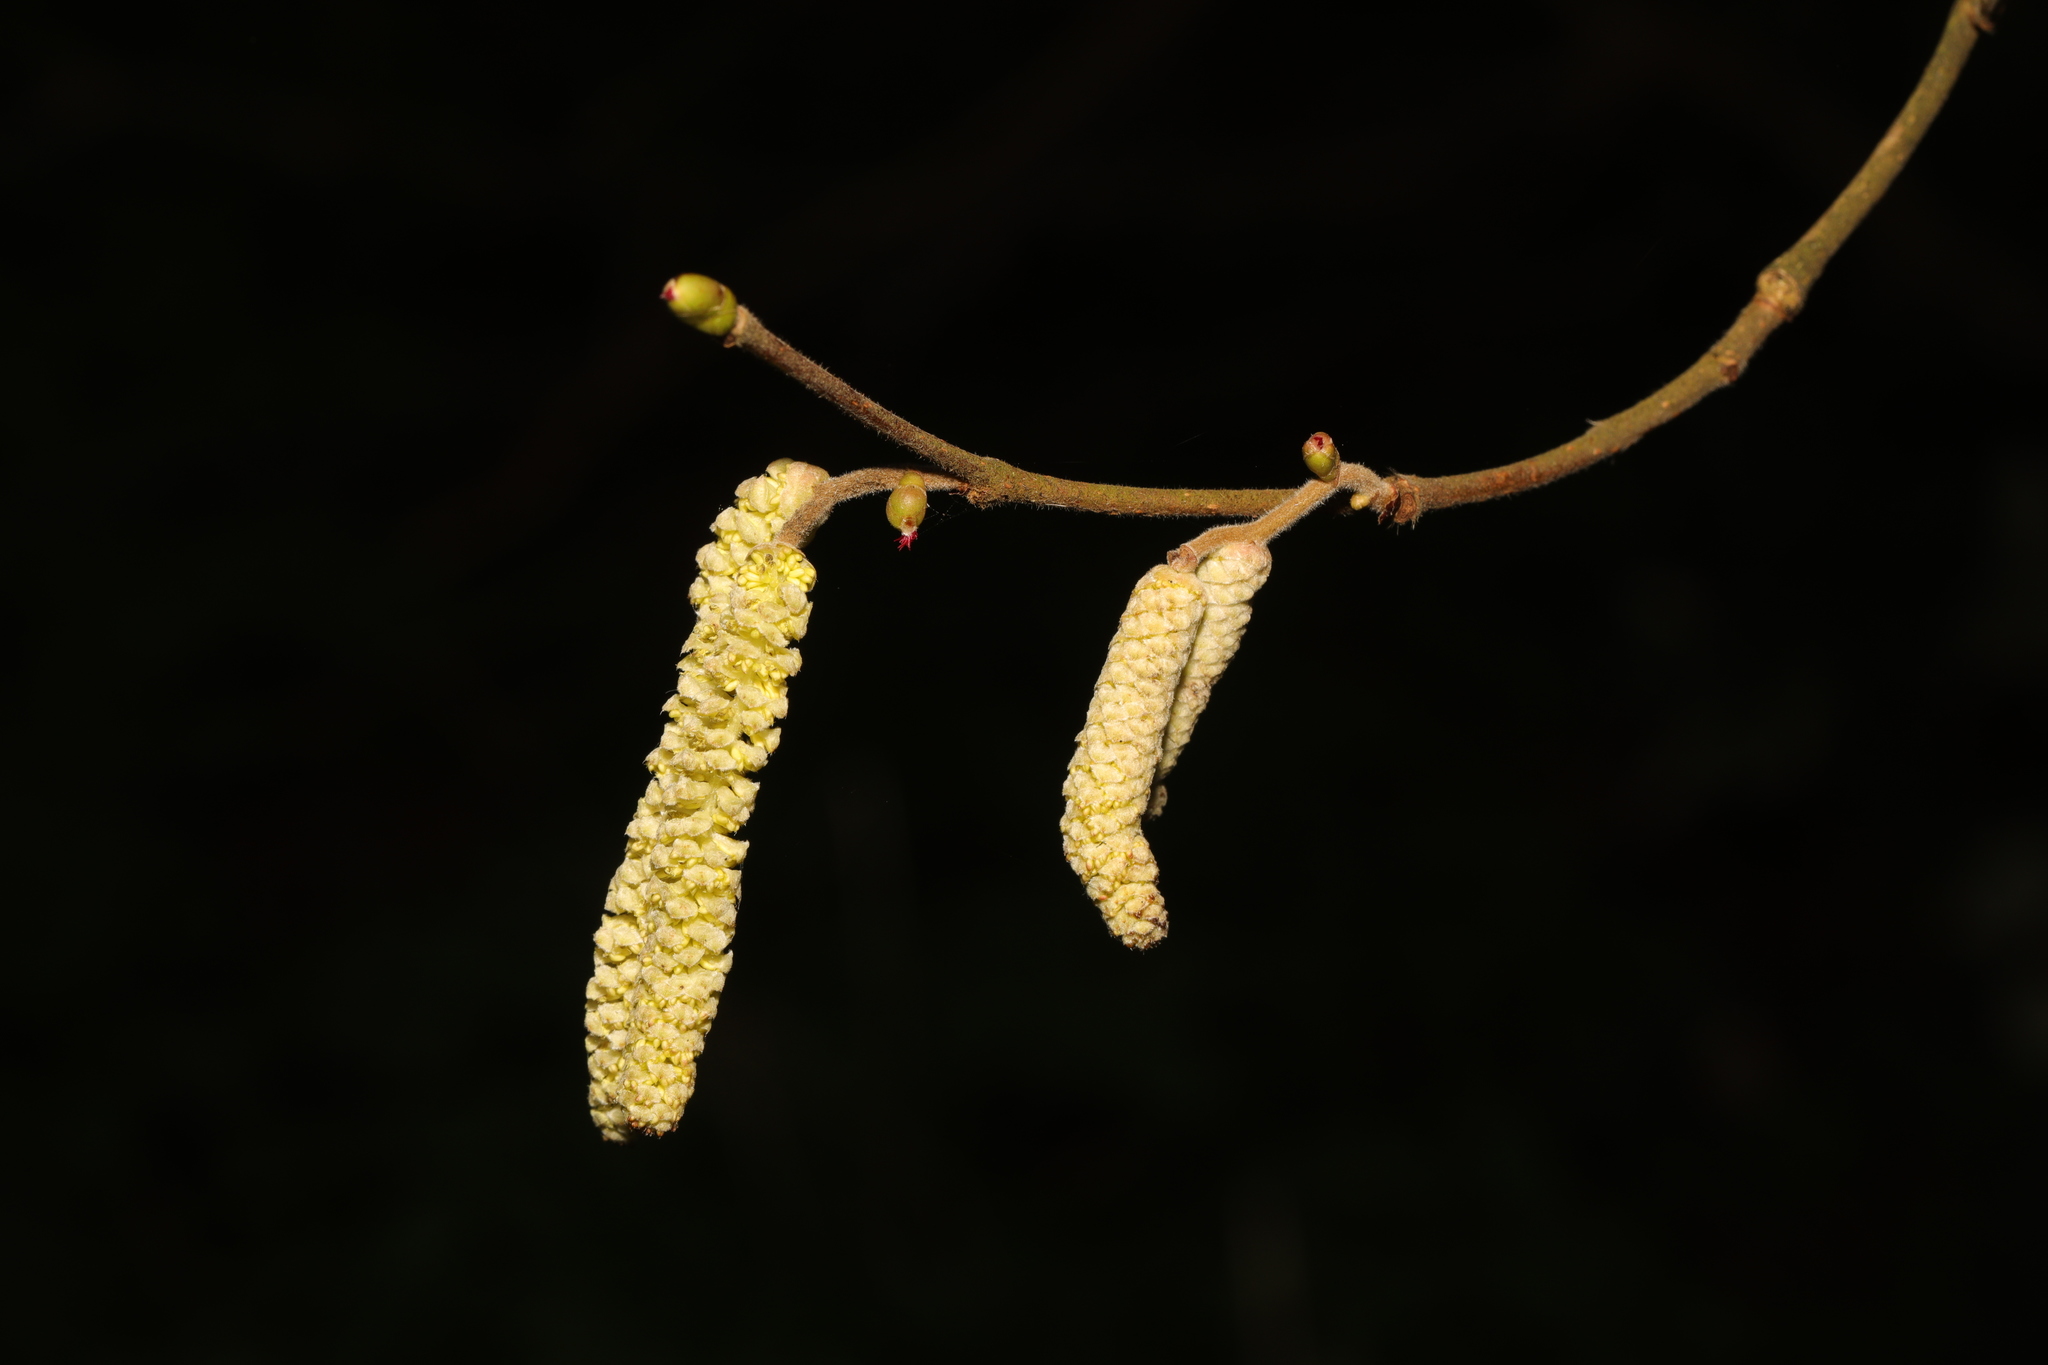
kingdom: Plantae
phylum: Tracheophyta
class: Magnoliopsida
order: Fagales
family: Betulaceae
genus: Corylus
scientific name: Corylus avellana
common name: European hazel
